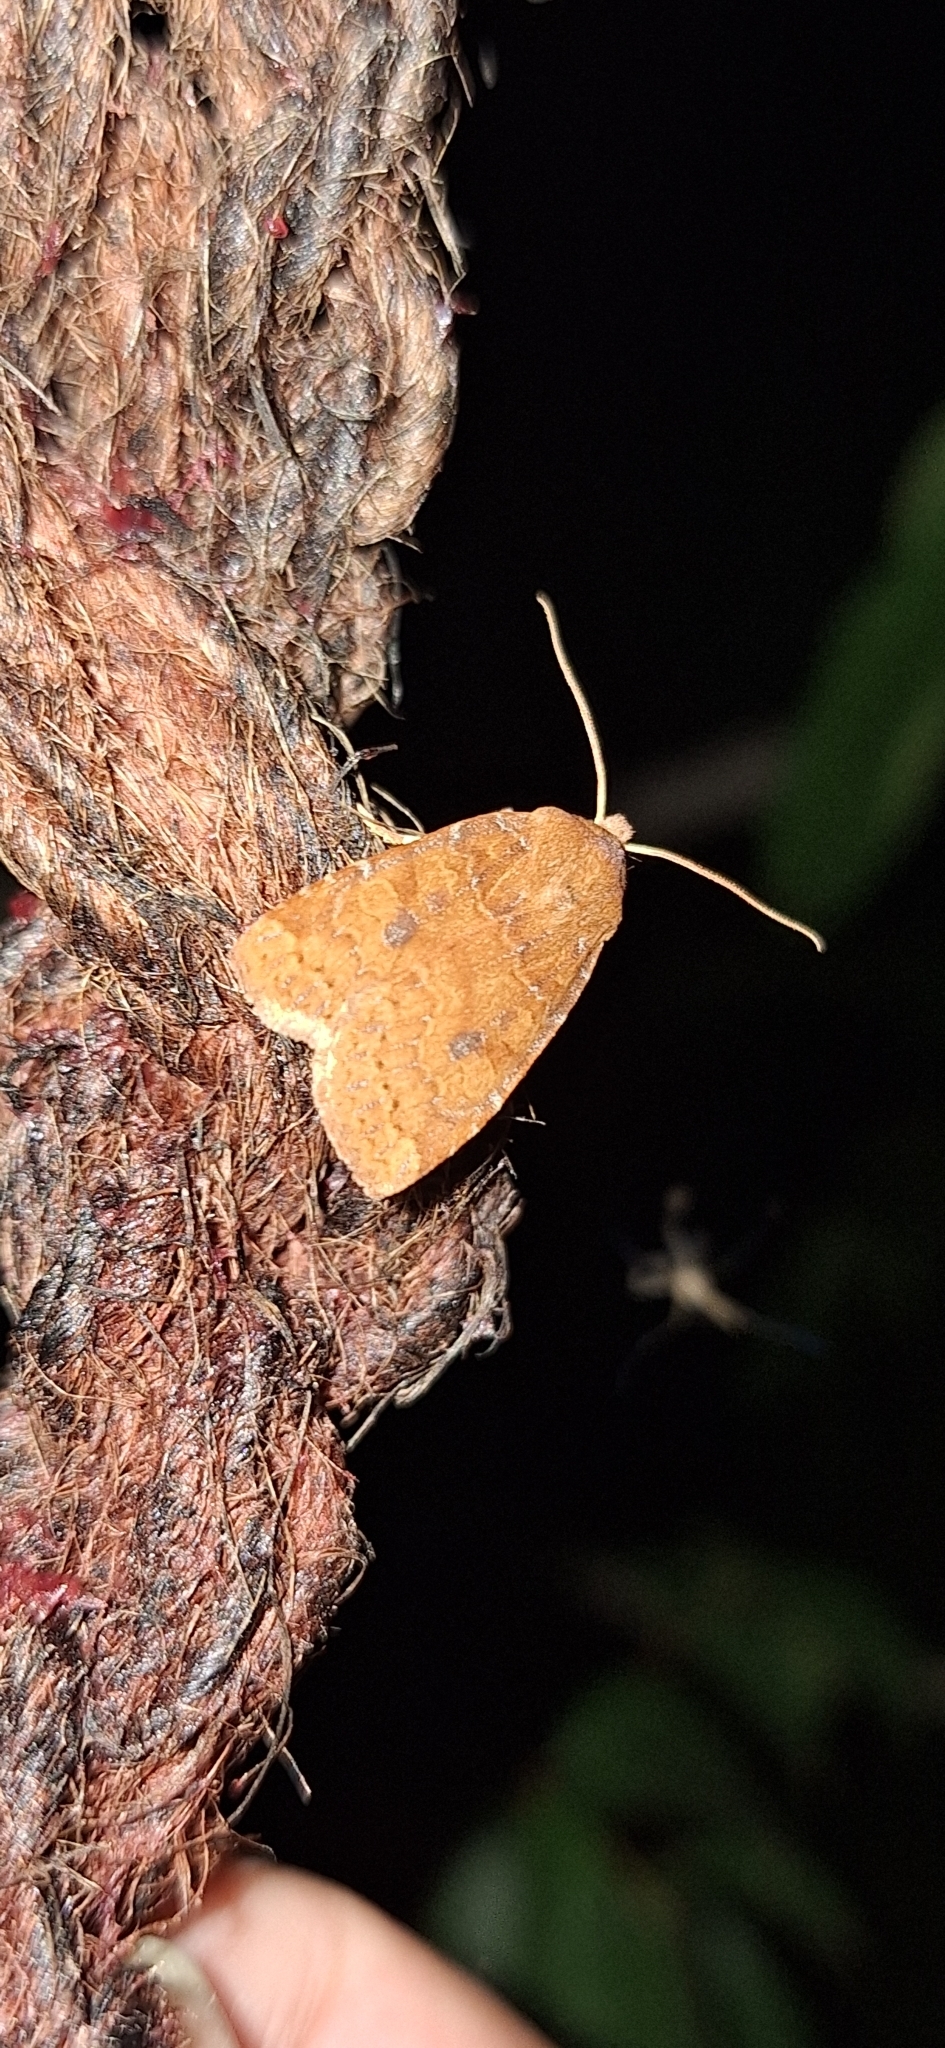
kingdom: Animalia
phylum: Arthropoda
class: Insecta
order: Lepidoptera
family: Noctuidae
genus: Conistra
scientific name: Conistra vaccinii
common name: Chestnut
